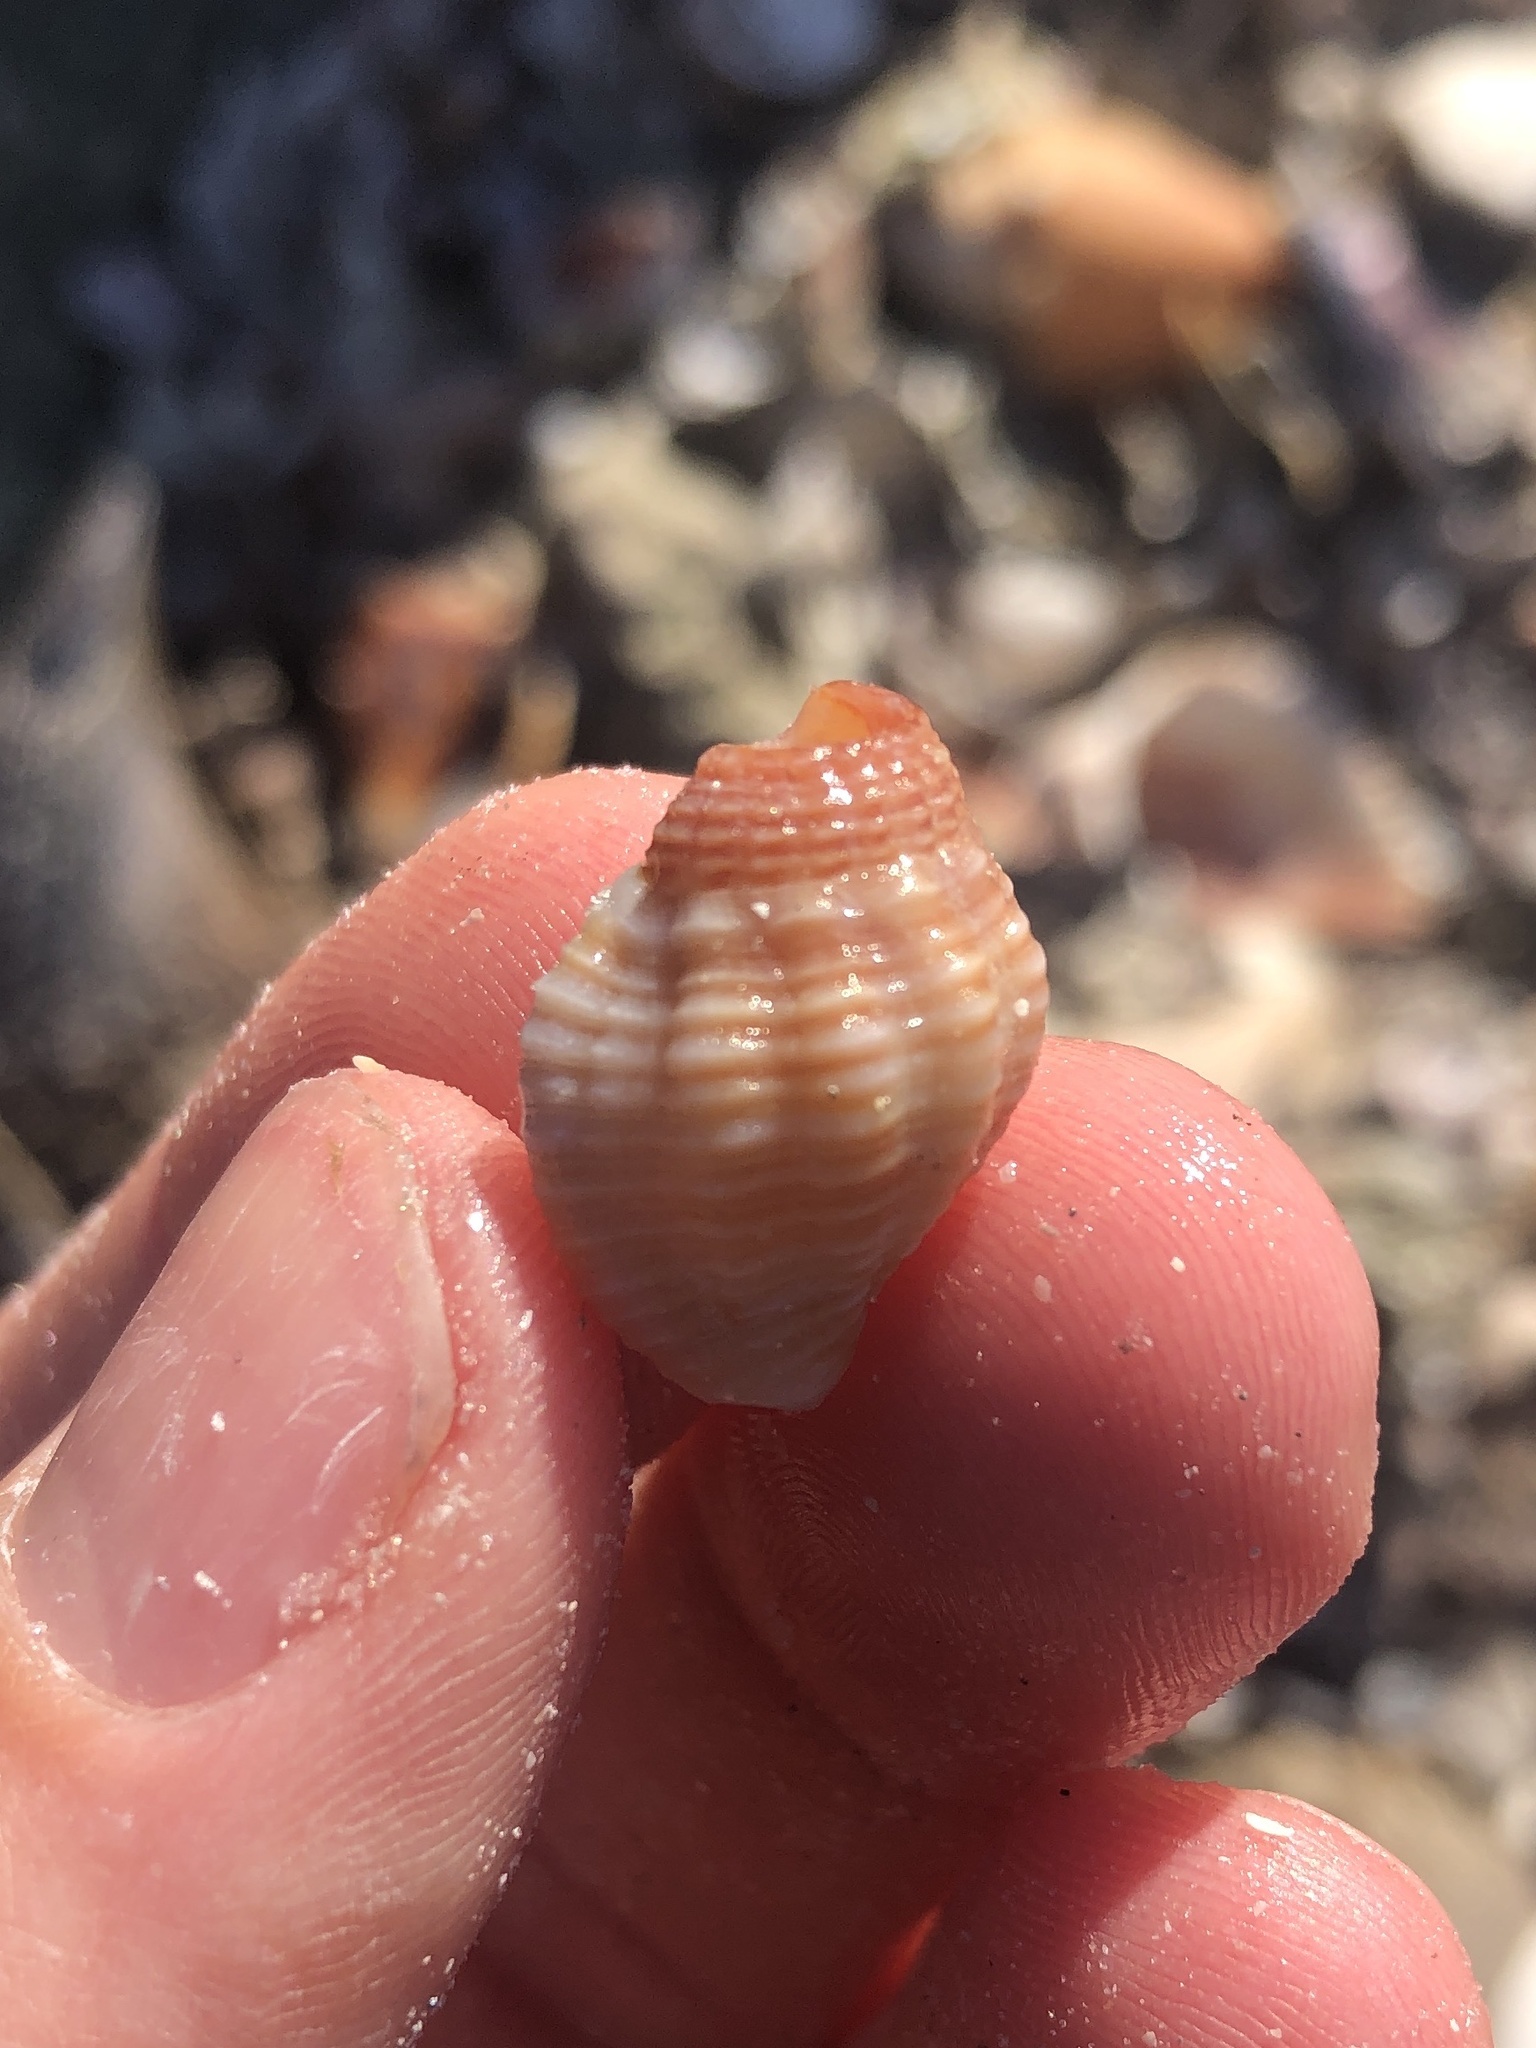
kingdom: Animalia
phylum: Mollusca
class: Gastropoda
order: Neogastropoda
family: Pisaniidae
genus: Gemophos
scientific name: Gemophos tinctus
